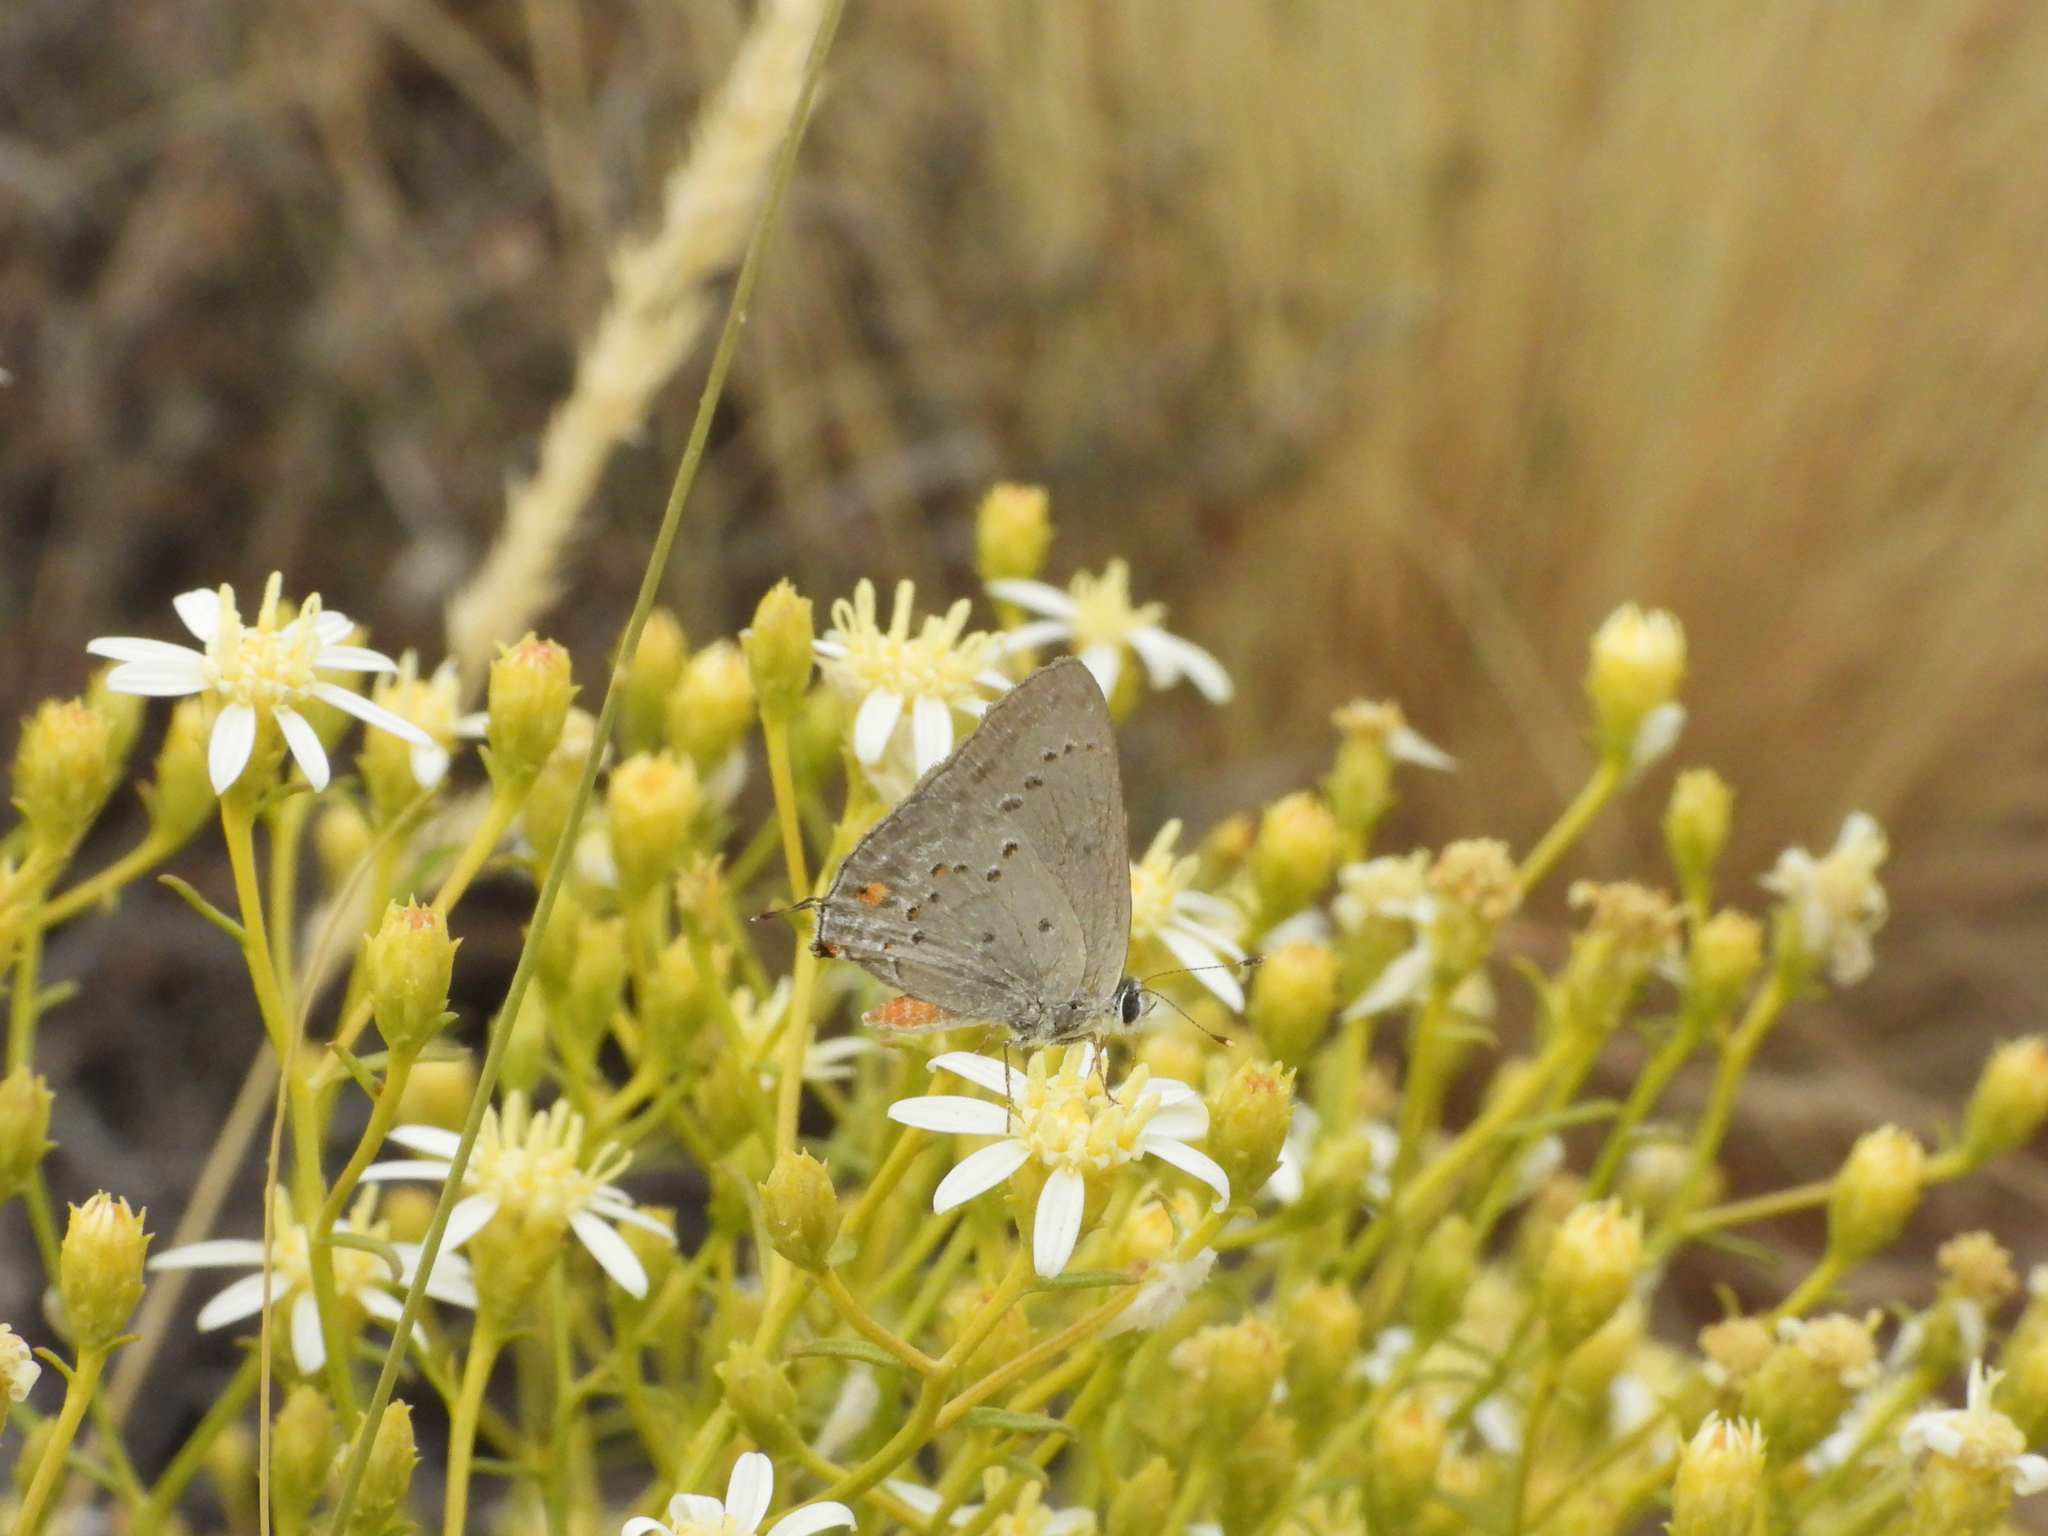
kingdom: Animalia
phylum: Arthropoda
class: Insecta
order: Lepidoptera
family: Lycaenidae
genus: Strymon
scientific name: Strymon eurytulus
